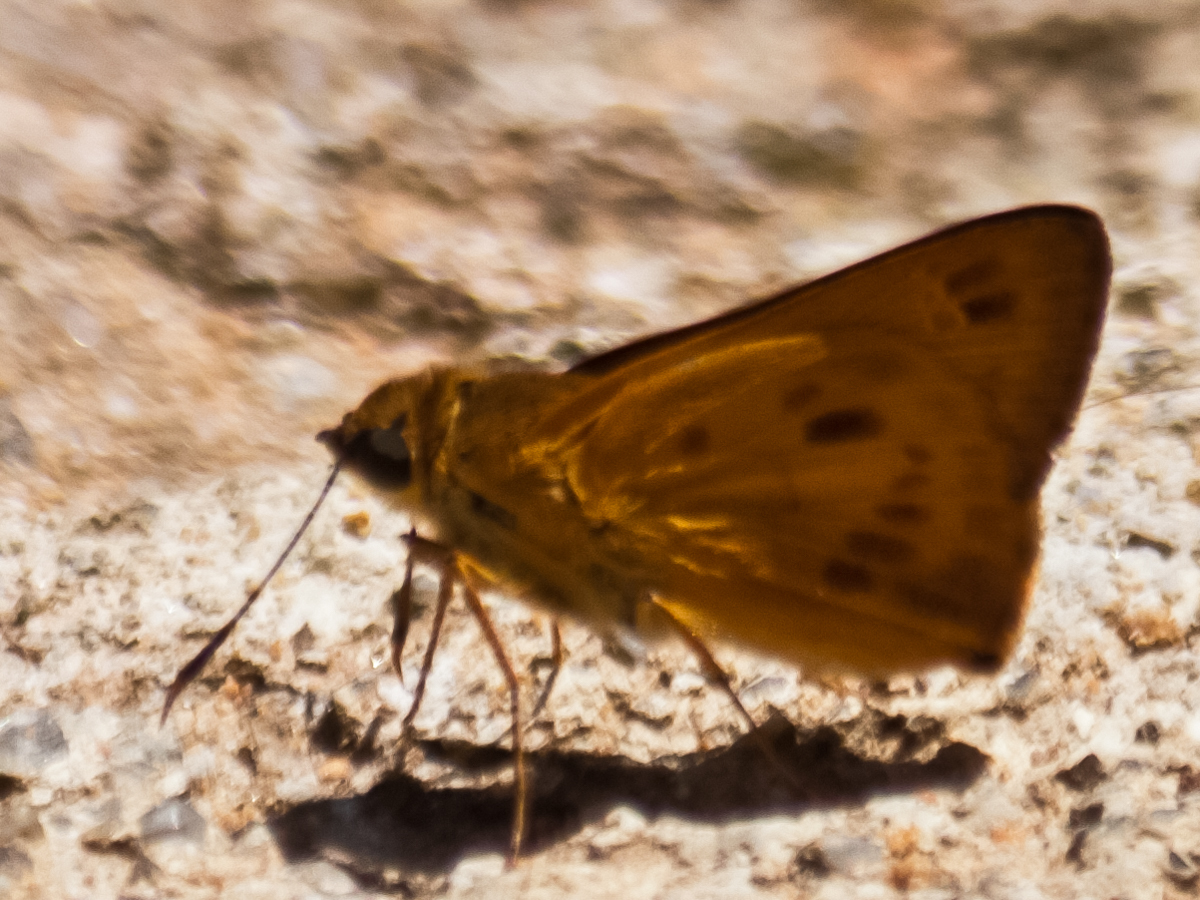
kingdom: Animalia
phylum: Arthropoda
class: Insecta
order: Lepidoptera
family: Hesperiidae
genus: Thoressa
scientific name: Thoressa masoni
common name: Golden ace
